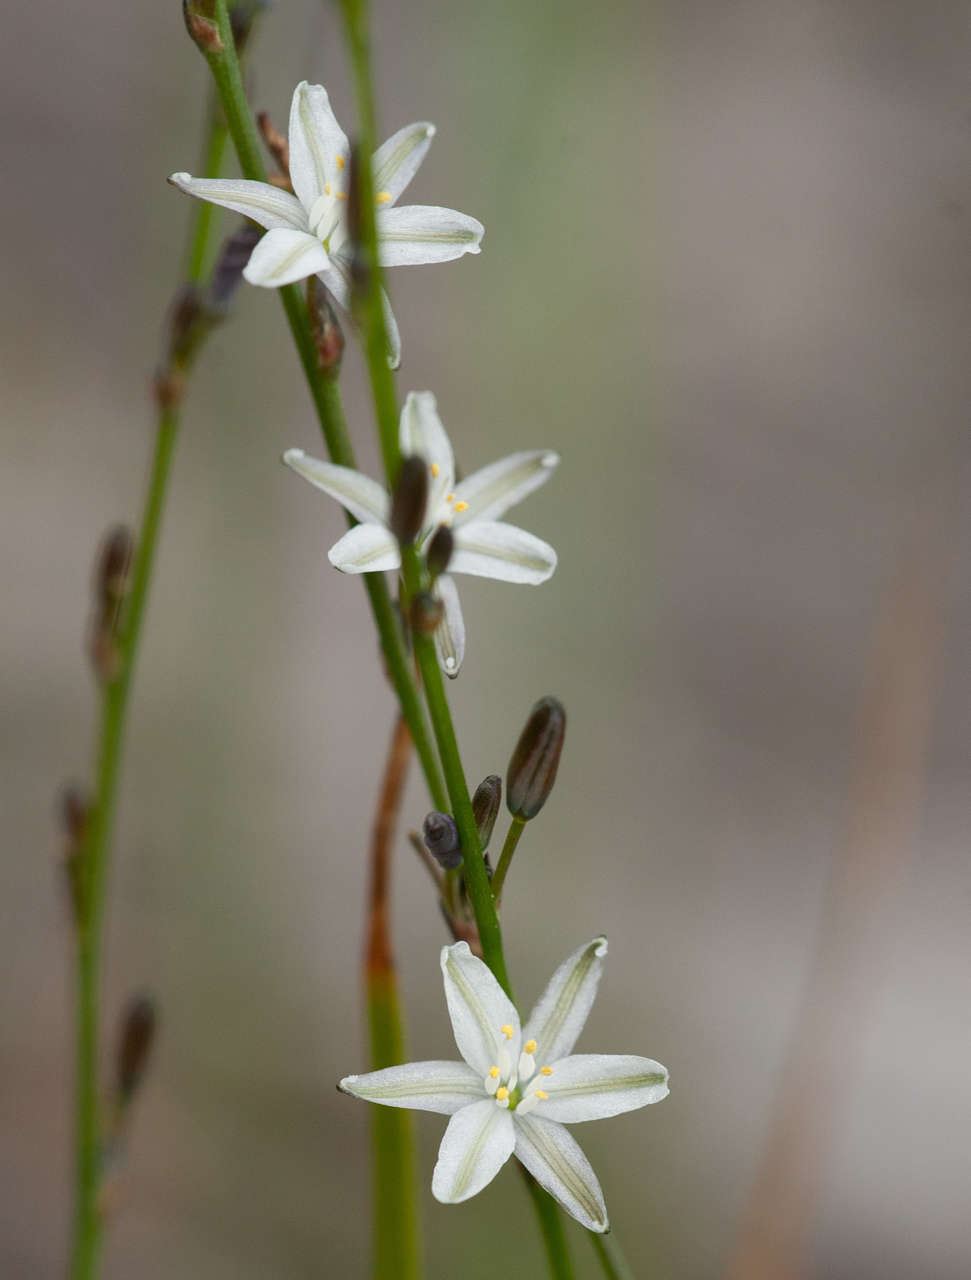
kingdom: Plantae
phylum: Tracheophyta
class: Liliopsida
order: Asparagales
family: Asphodelaceae
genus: Caesia
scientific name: Caesia parviflora
